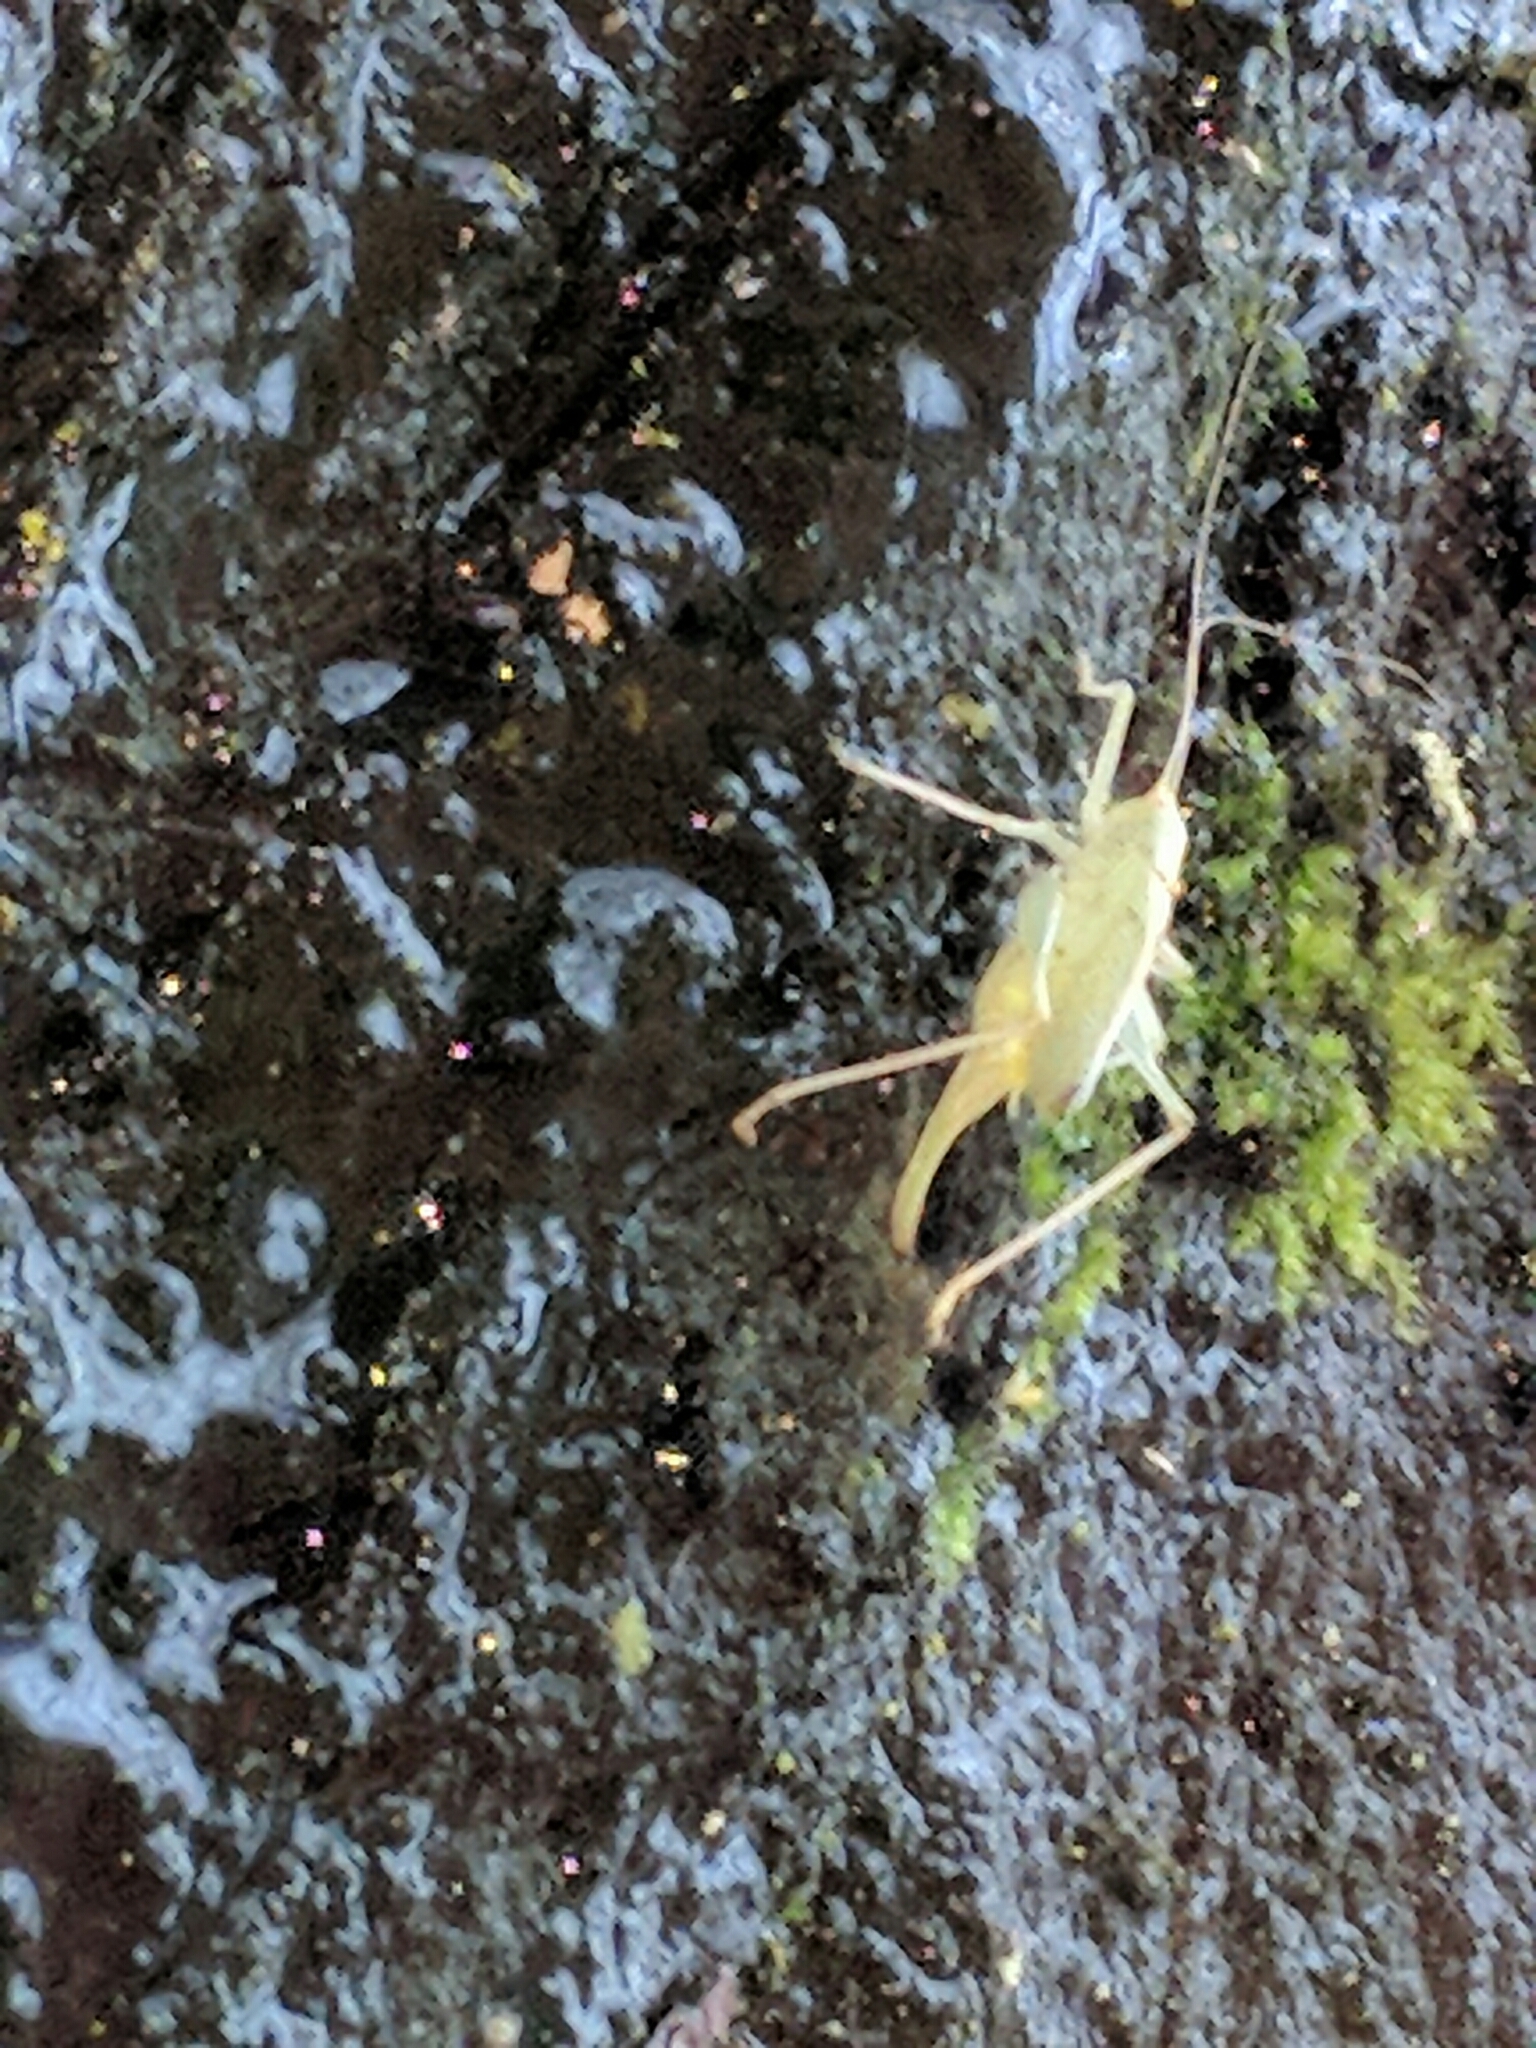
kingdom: Animalia
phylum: Arthropoda
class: Insecta
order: Orthoptera
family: Tettigoniidae
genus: Meconema
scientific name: Meconema thalassinum
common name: Oak bush-cricket
